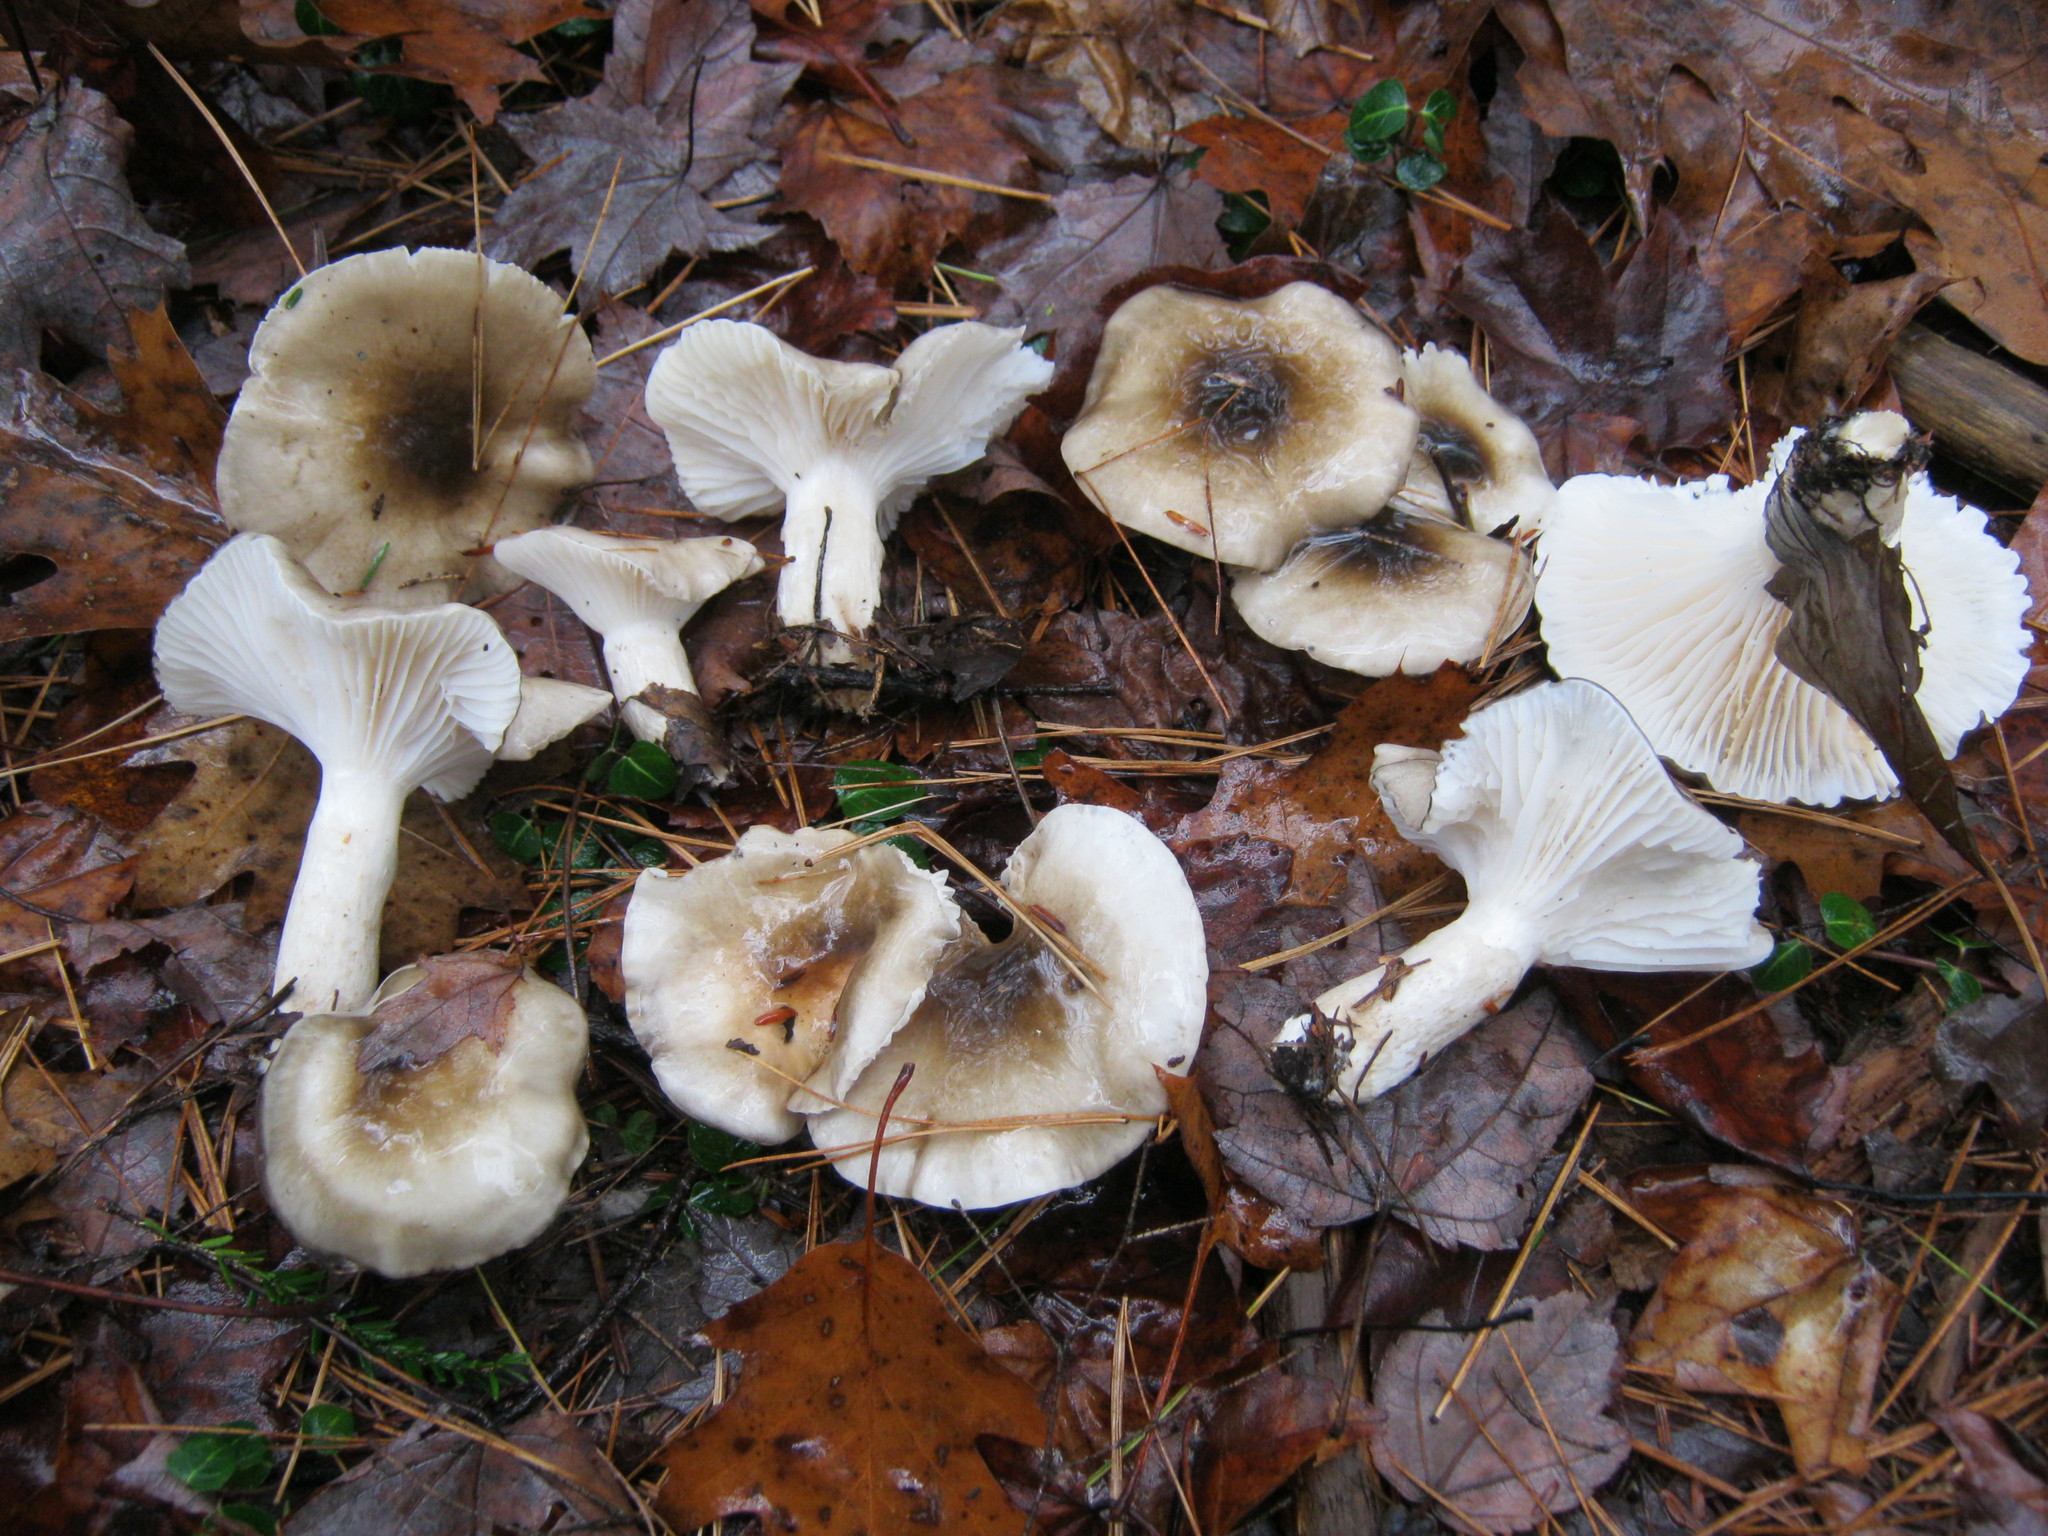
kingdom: Fungi
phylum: Basidiomycota
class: Agaricomycetes
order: Agaricales
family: Hygrophoraceae
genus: Hygrophorus
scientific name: Hygrophorus fuligineus
